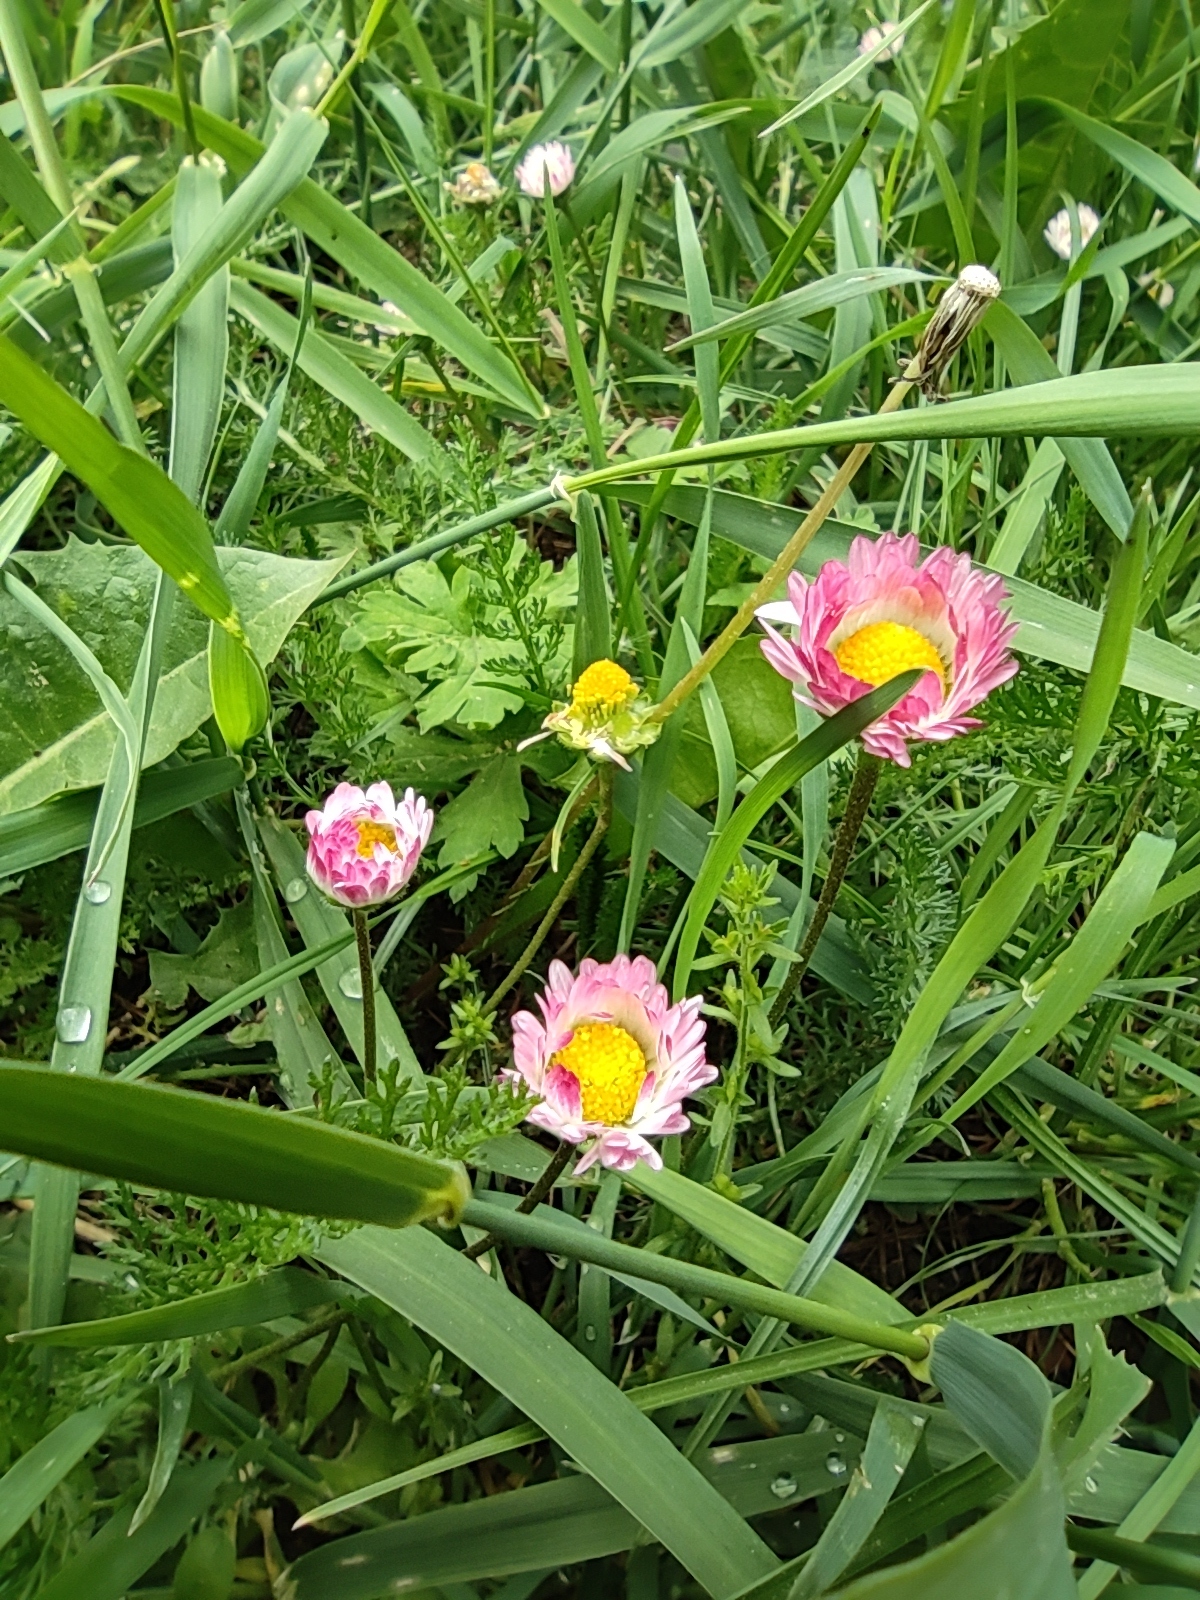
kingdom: Plantae
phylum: Tracheophyta
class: Magnoliopsida
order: Asterales
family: Asteraceae
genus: Bellis
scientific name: Bellis perennis
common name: Lawndaisy
